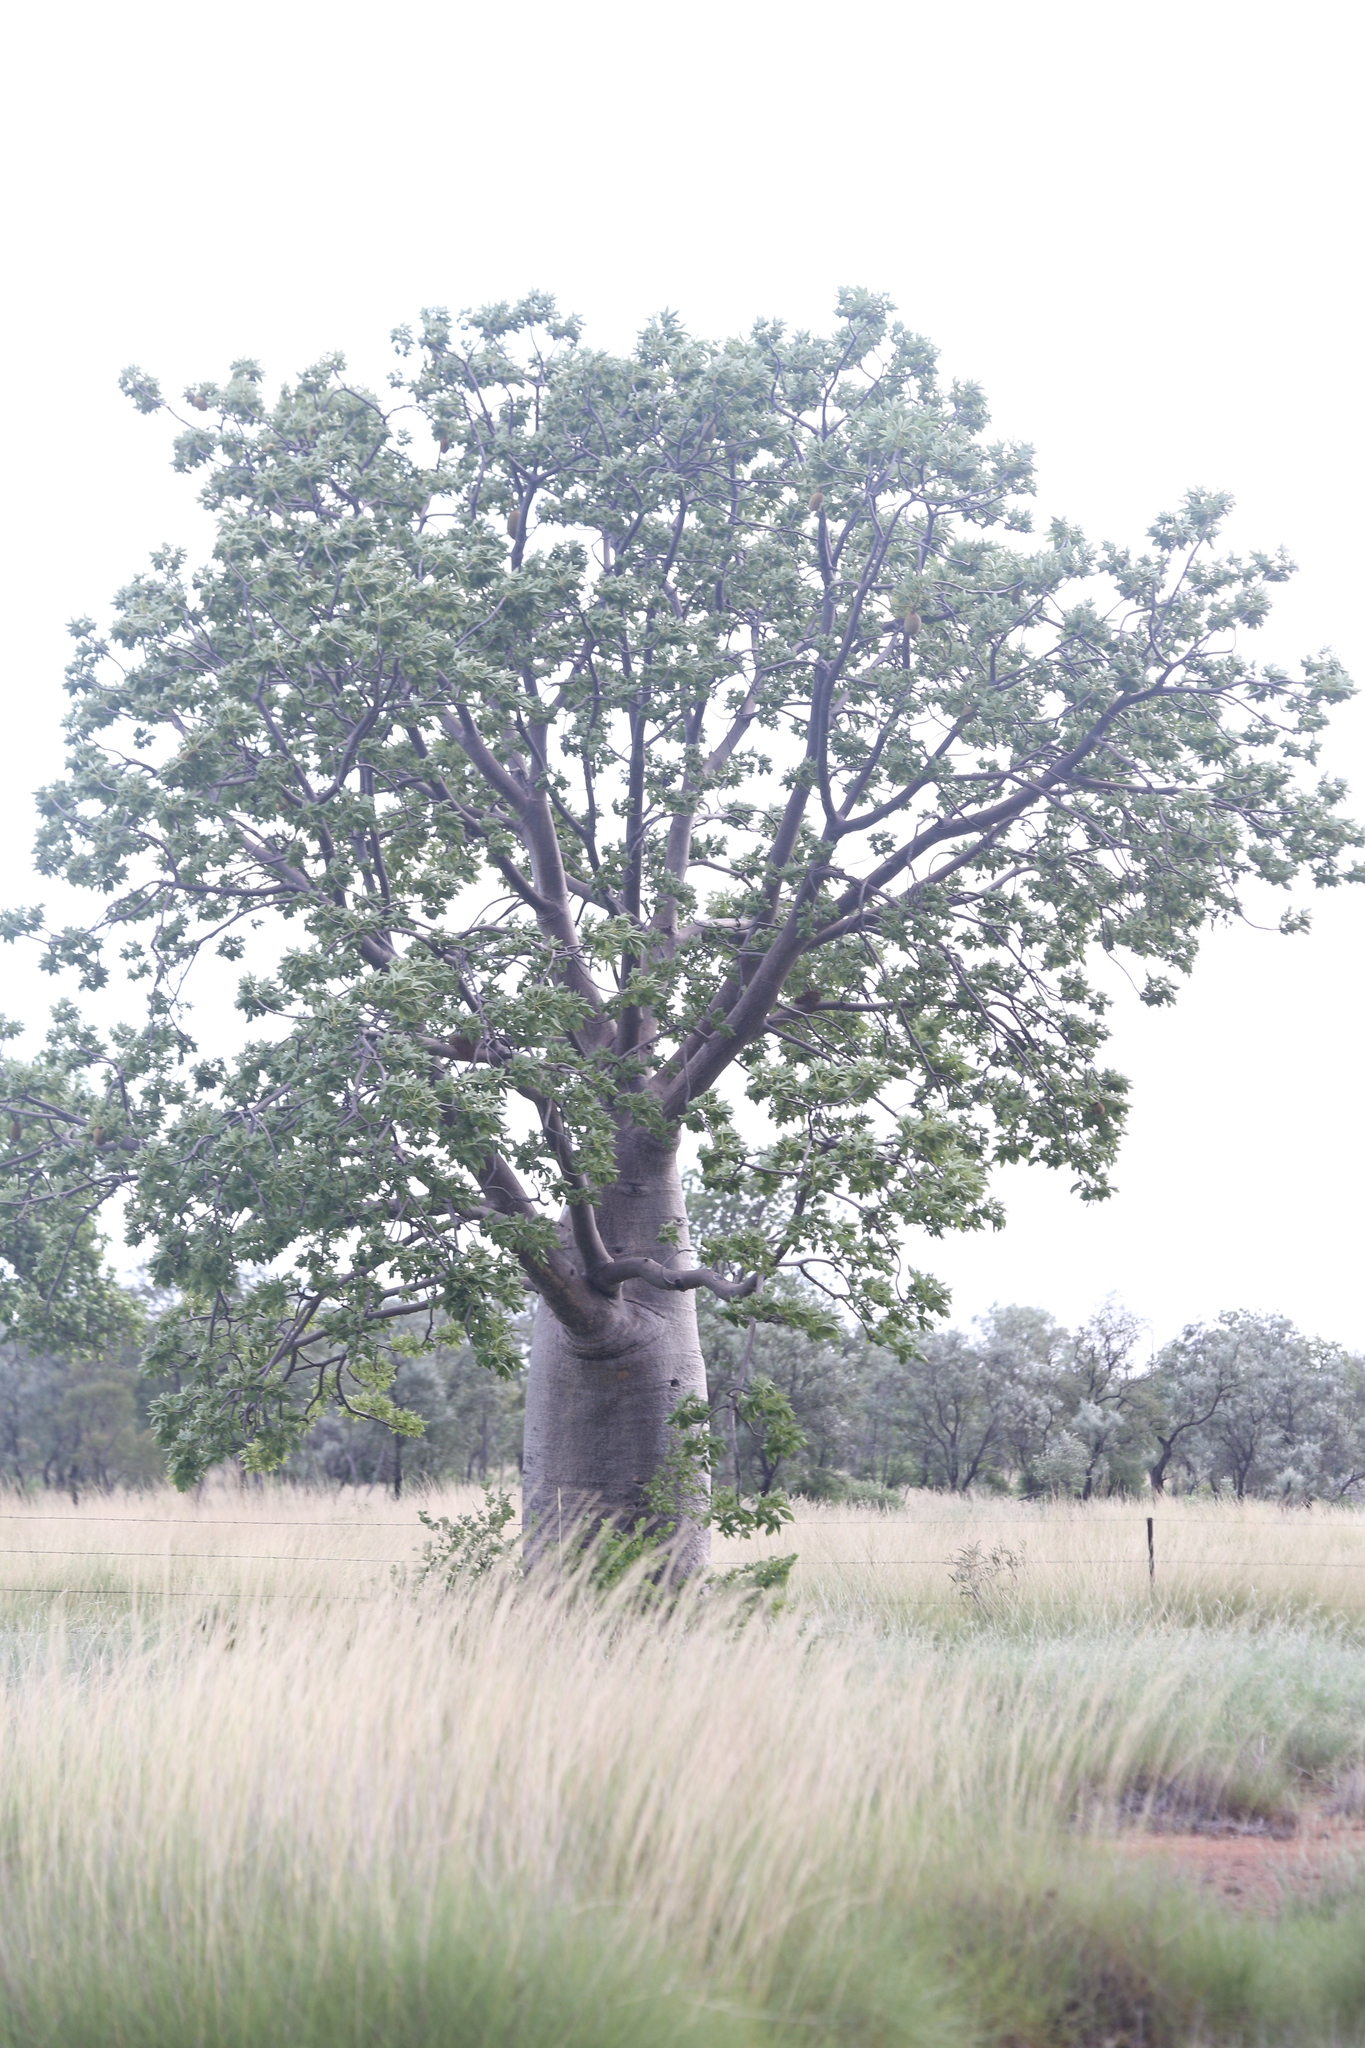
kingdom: Plantae
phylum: Tracheophyta
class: Magnoliopsida
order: Malvales
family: Malvaceae
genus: Adansonia
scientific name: Adansonia gregorii
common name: Australian baobab
